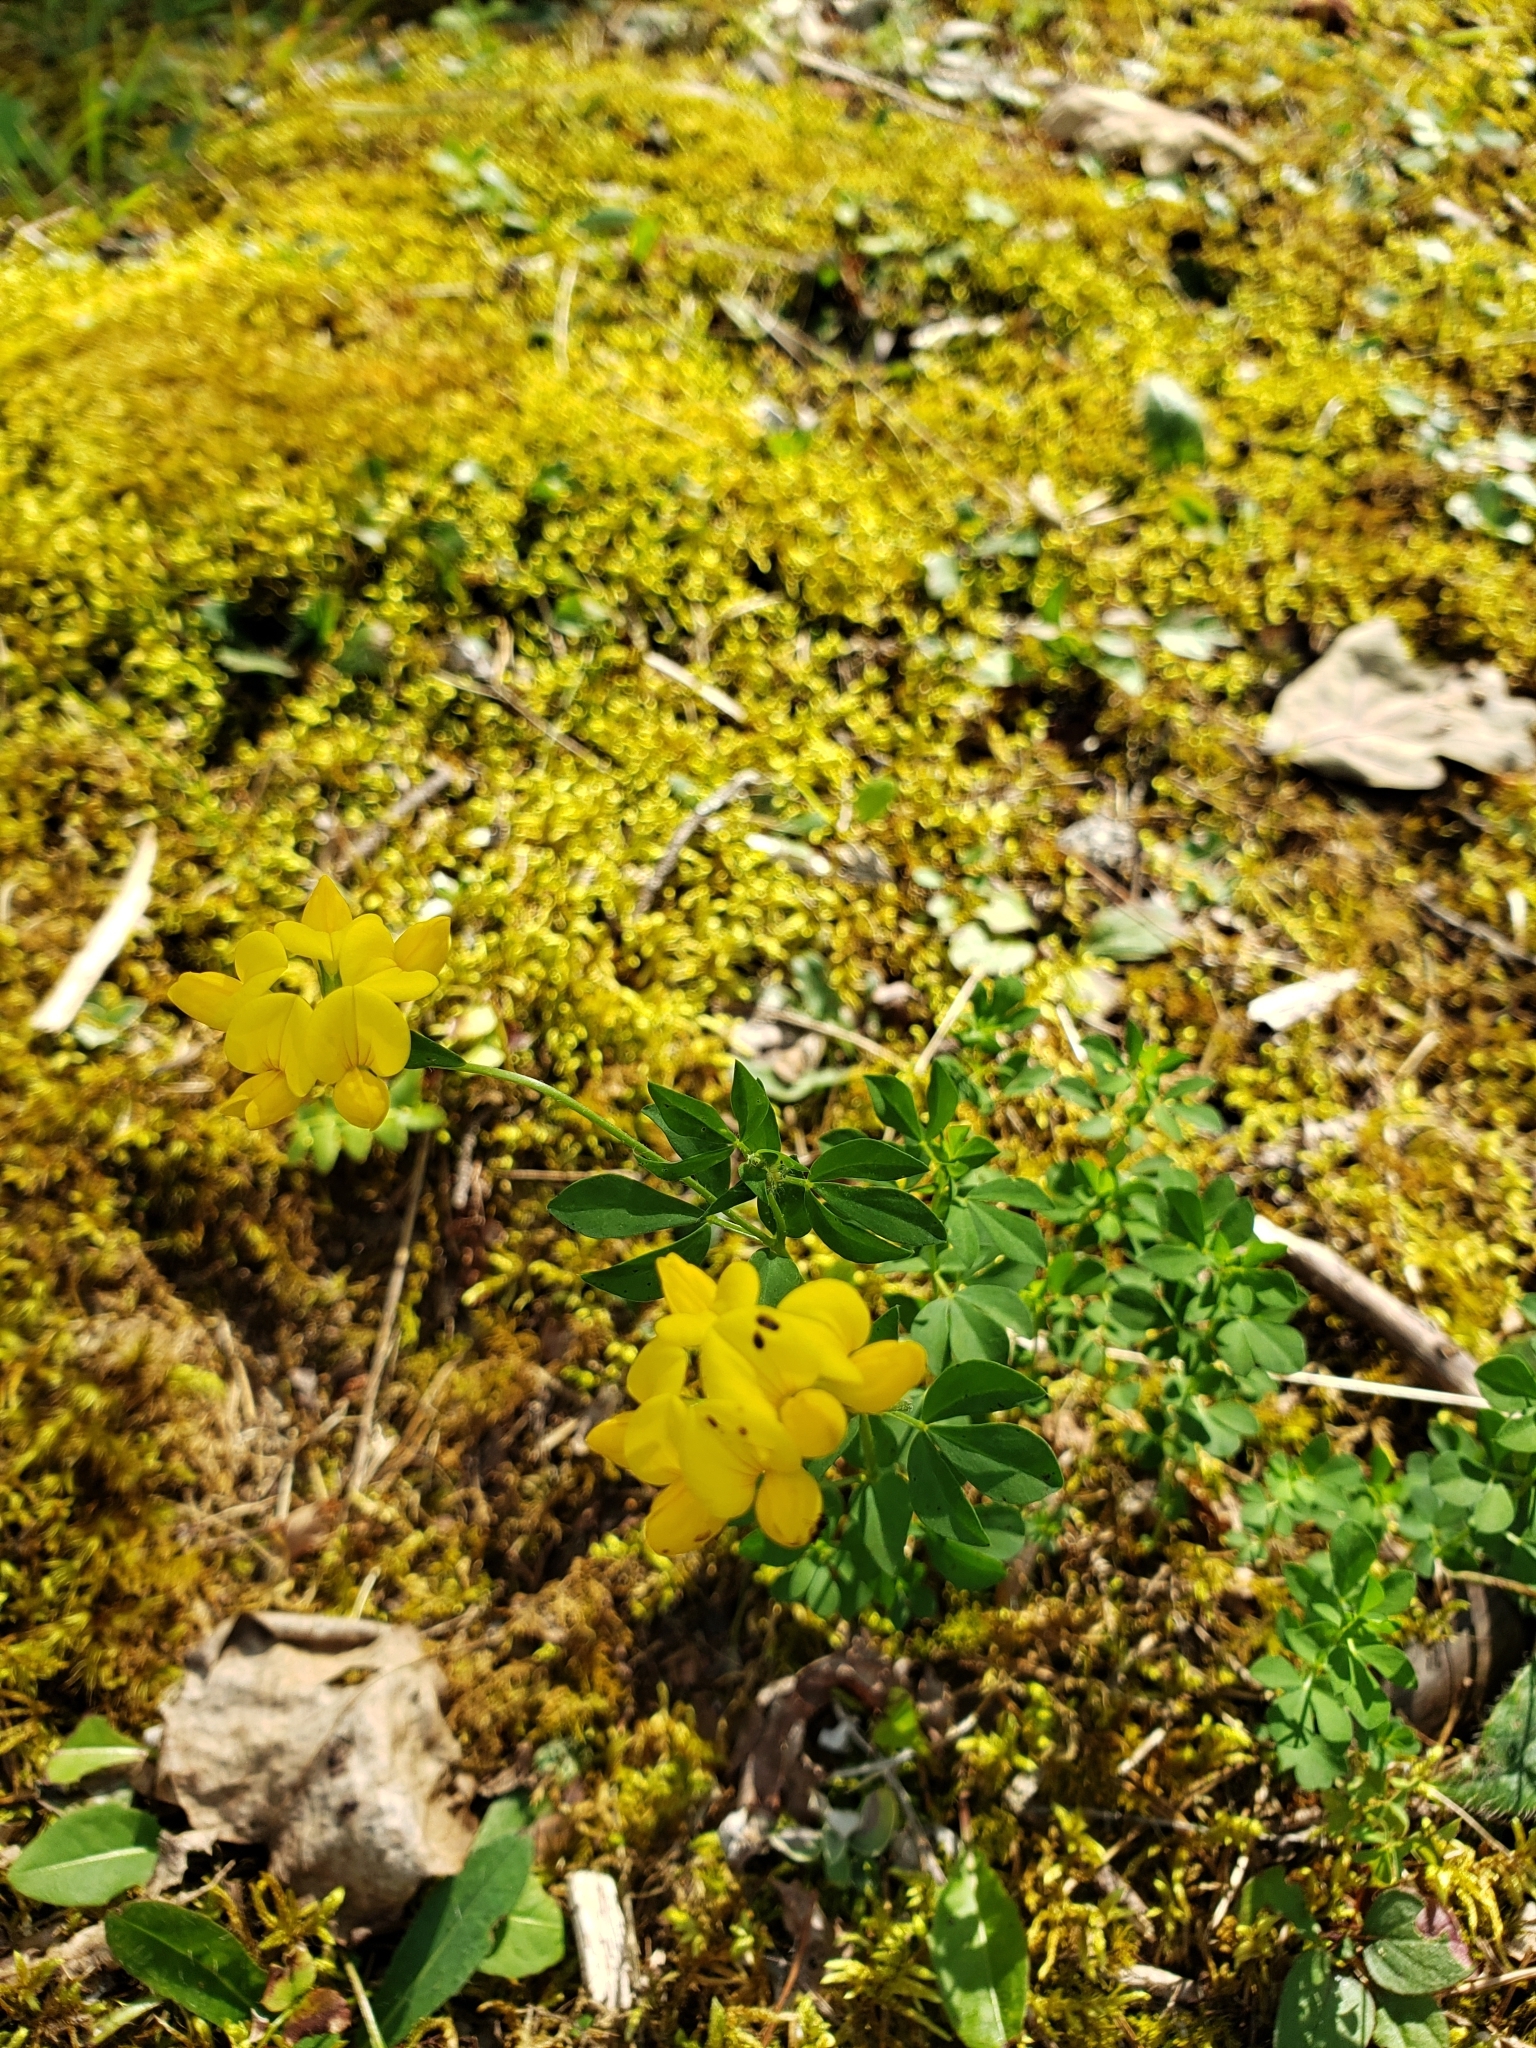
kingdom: Plantae
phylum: Tracheophyta
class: Magnoliopsida
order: Fabales
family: Fabaceae
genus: Lotus
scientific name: Lotus corniculatus
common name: Common bird's-foot-trefoil
